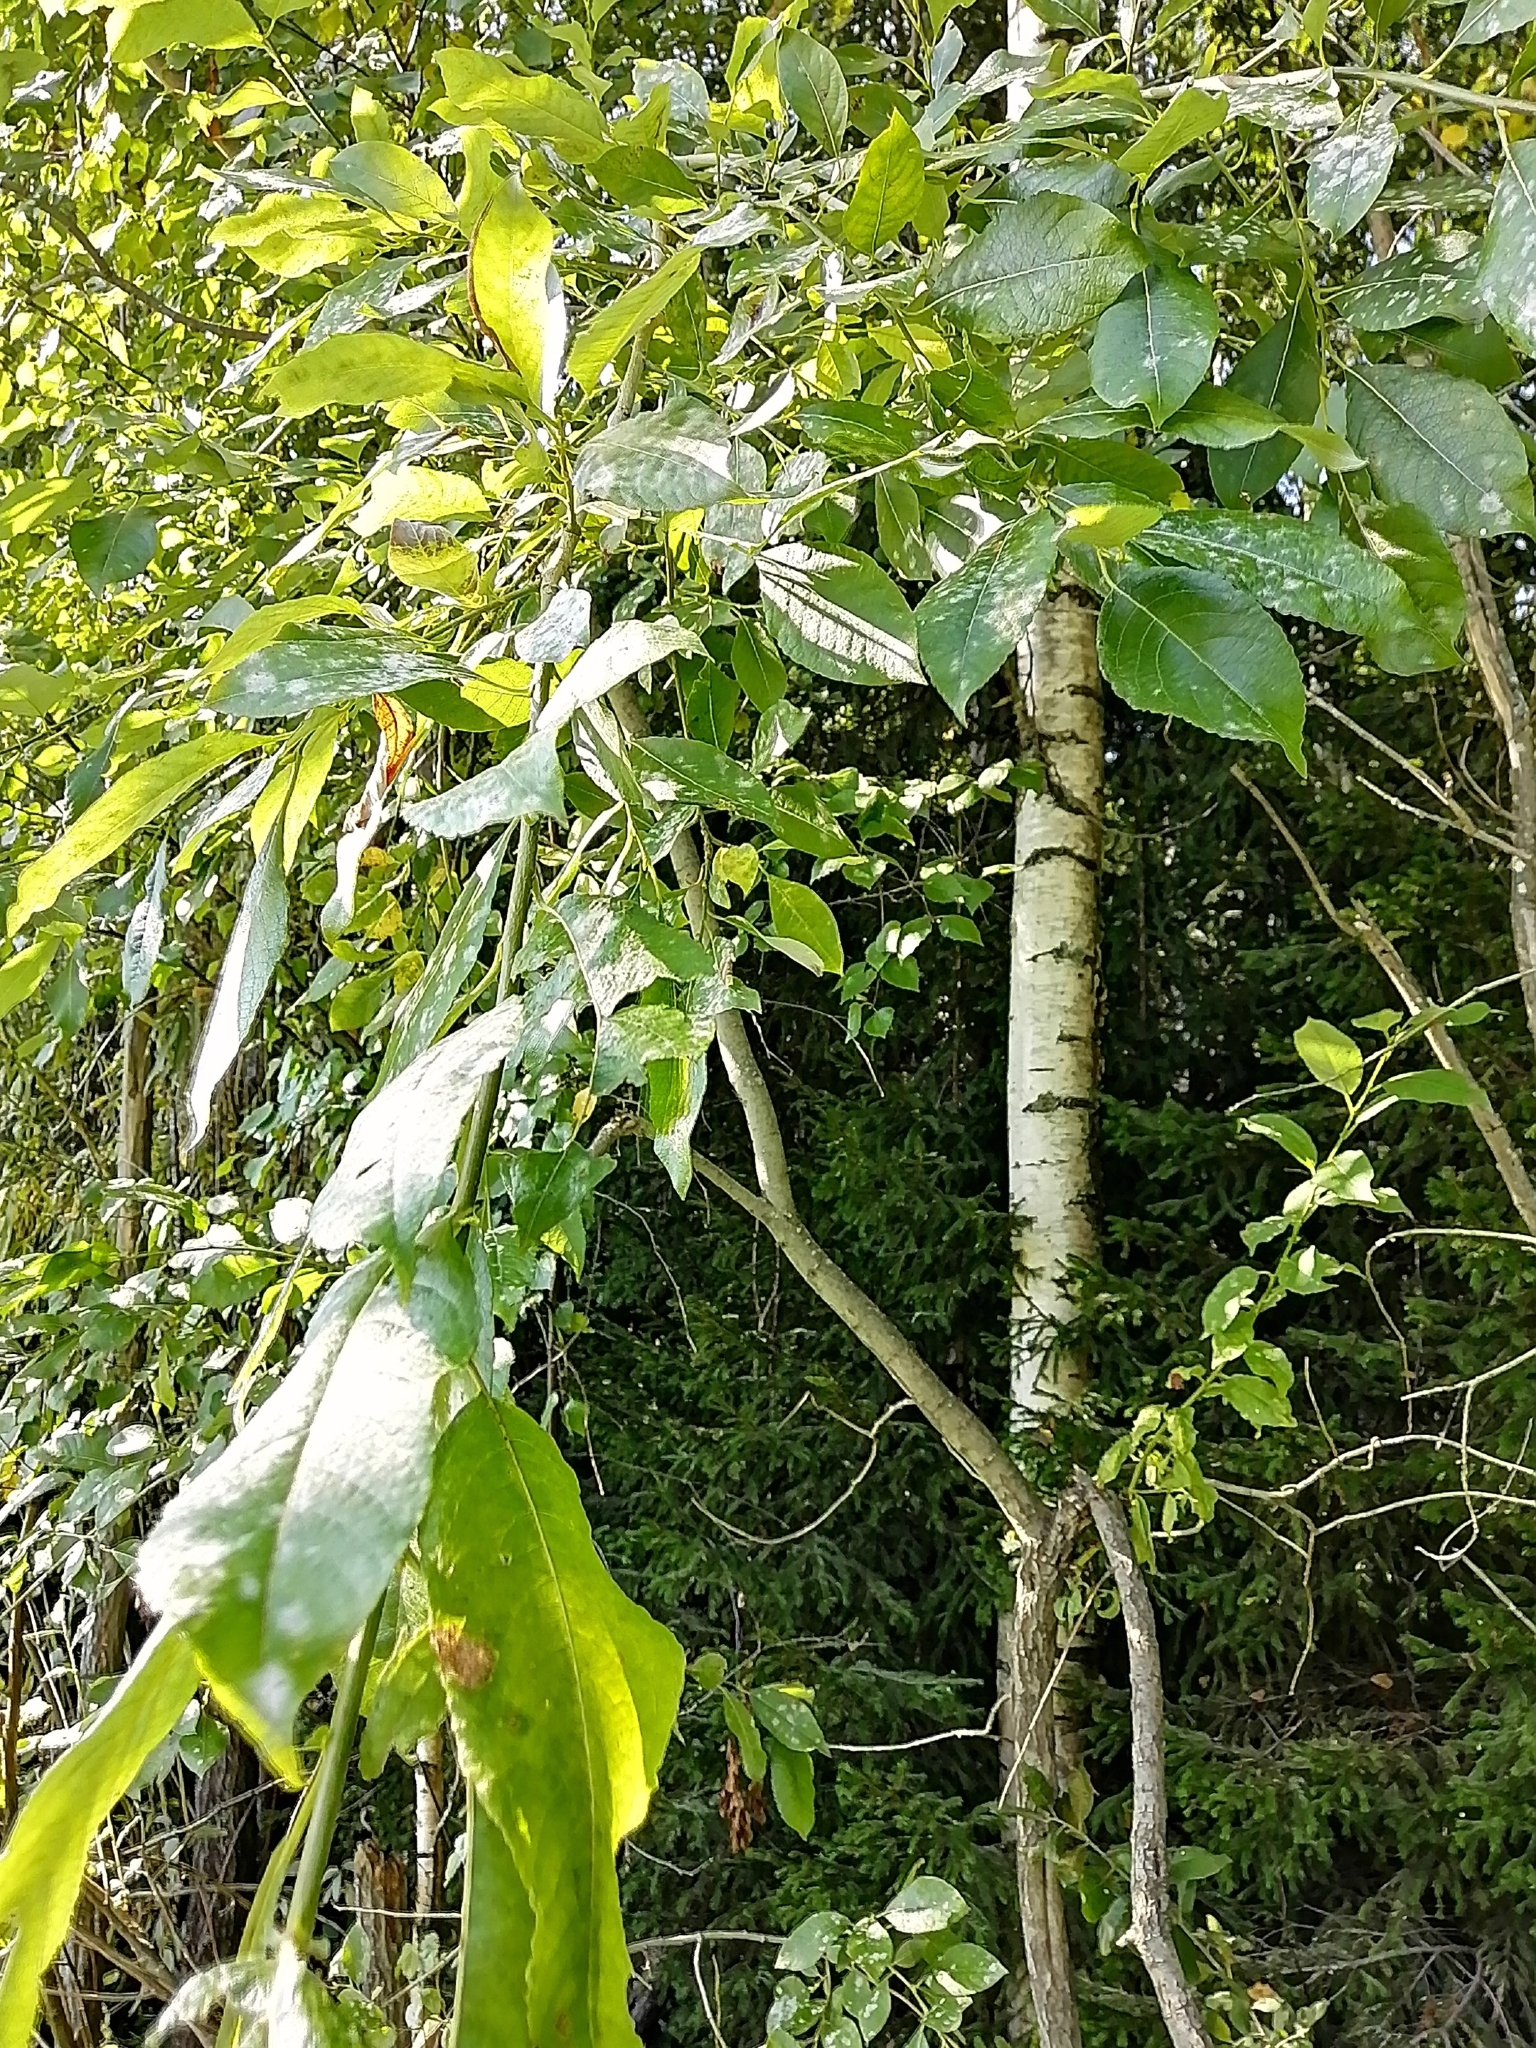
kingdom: Plantae
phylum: Tracheophyta
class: Magnoliopsida
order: Malpighiales
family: Salicaceae
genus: Salix
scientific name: Salix caprea
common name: Goat willow
